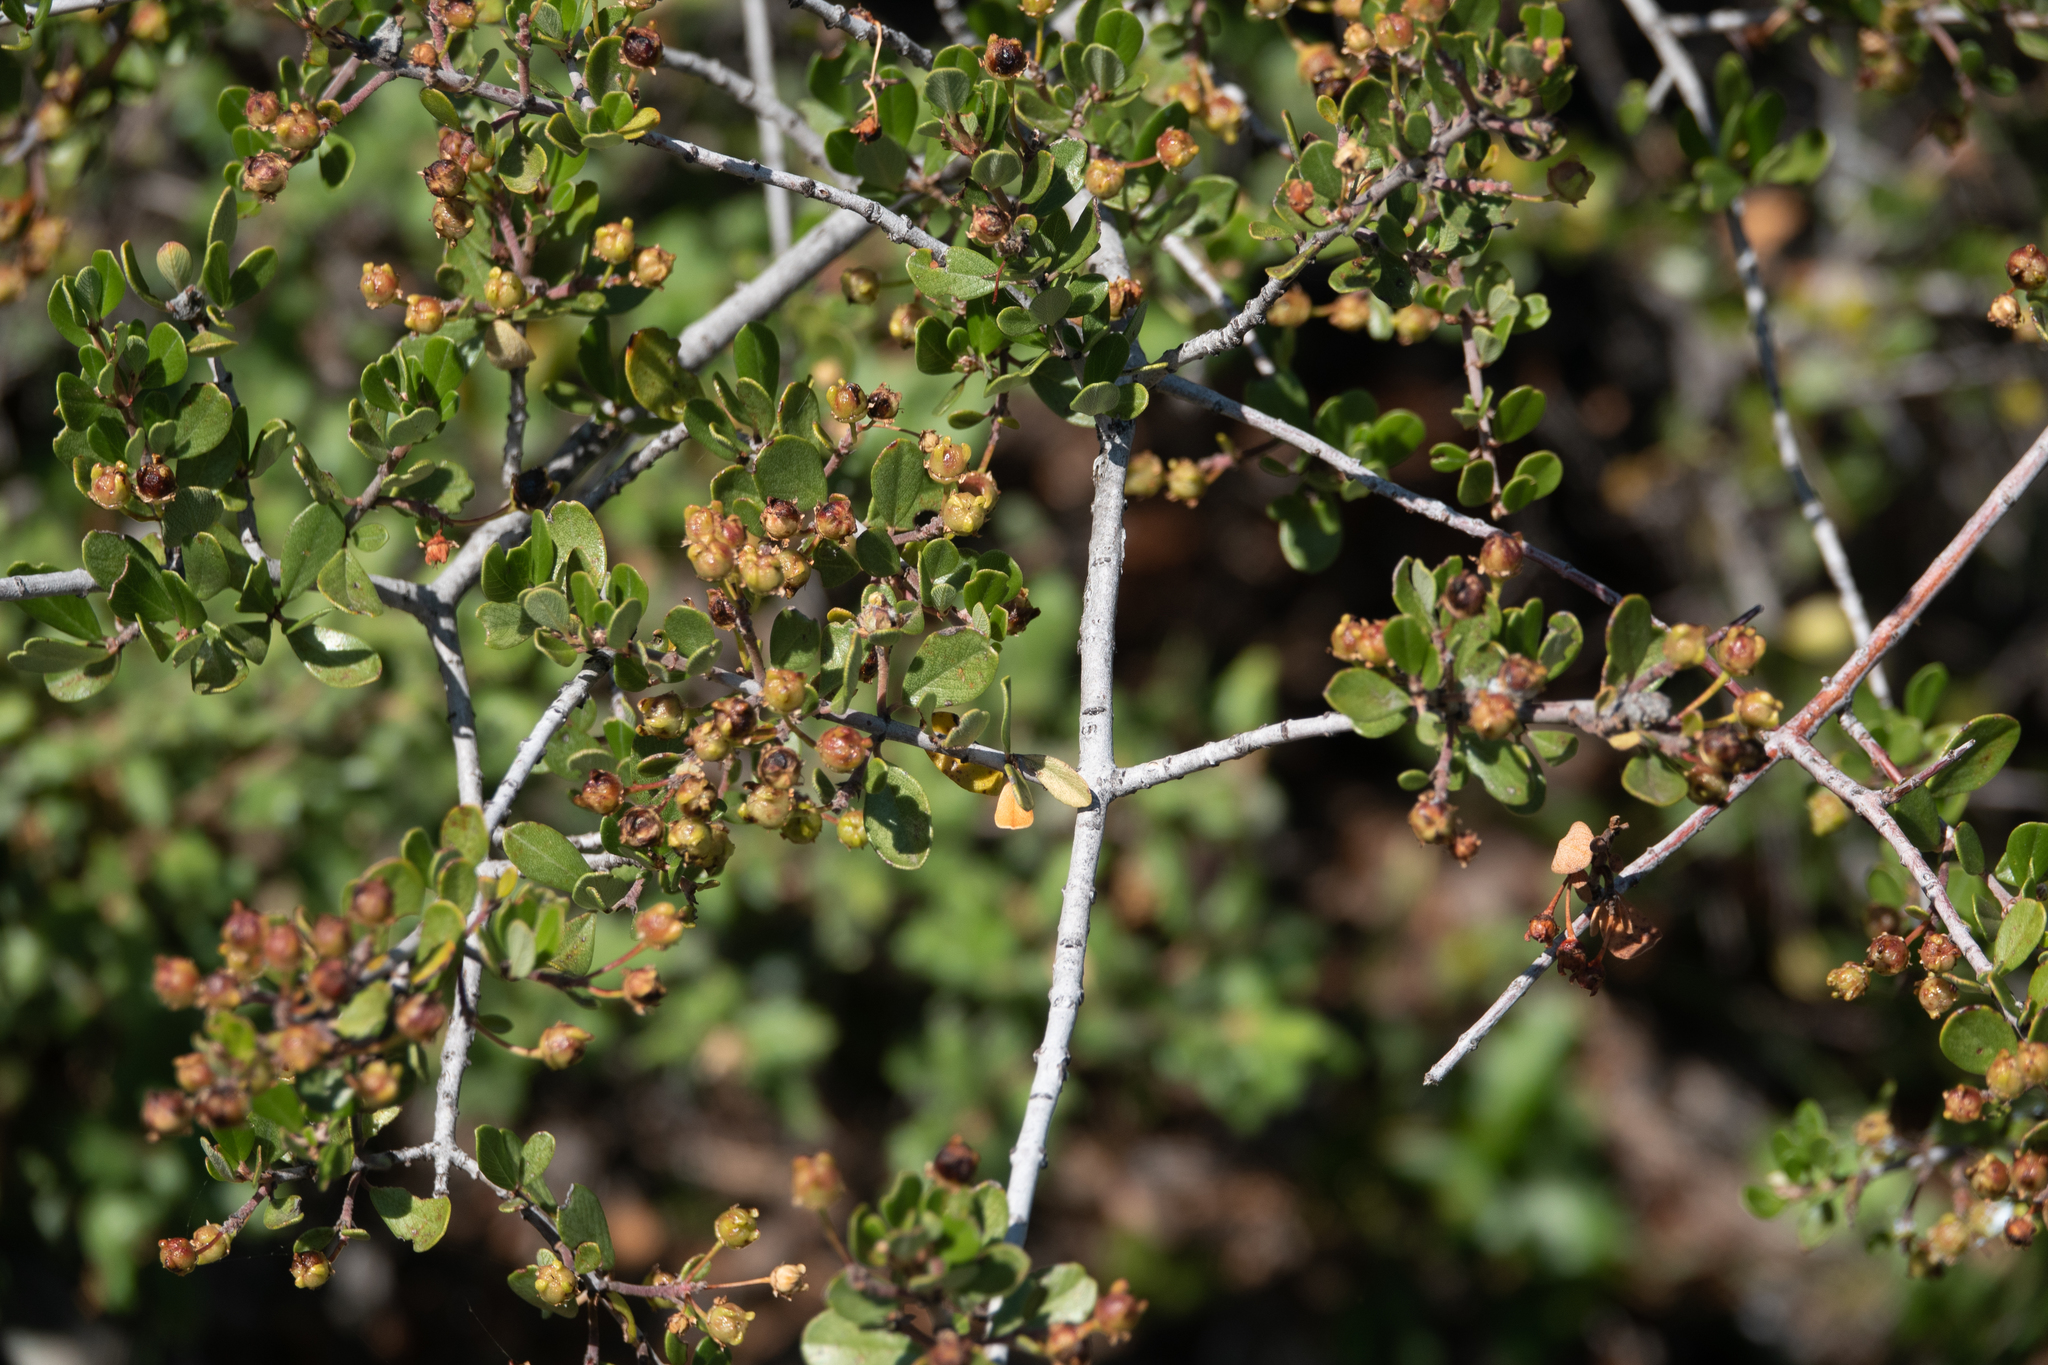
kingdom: Plantae
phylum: Tracheophyta
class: Magnoliopsida
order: Rosales
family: Rhamnaceae
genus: Ceanothus
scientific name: Ceanothus cuneatus
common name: Cuneate ceanothus
